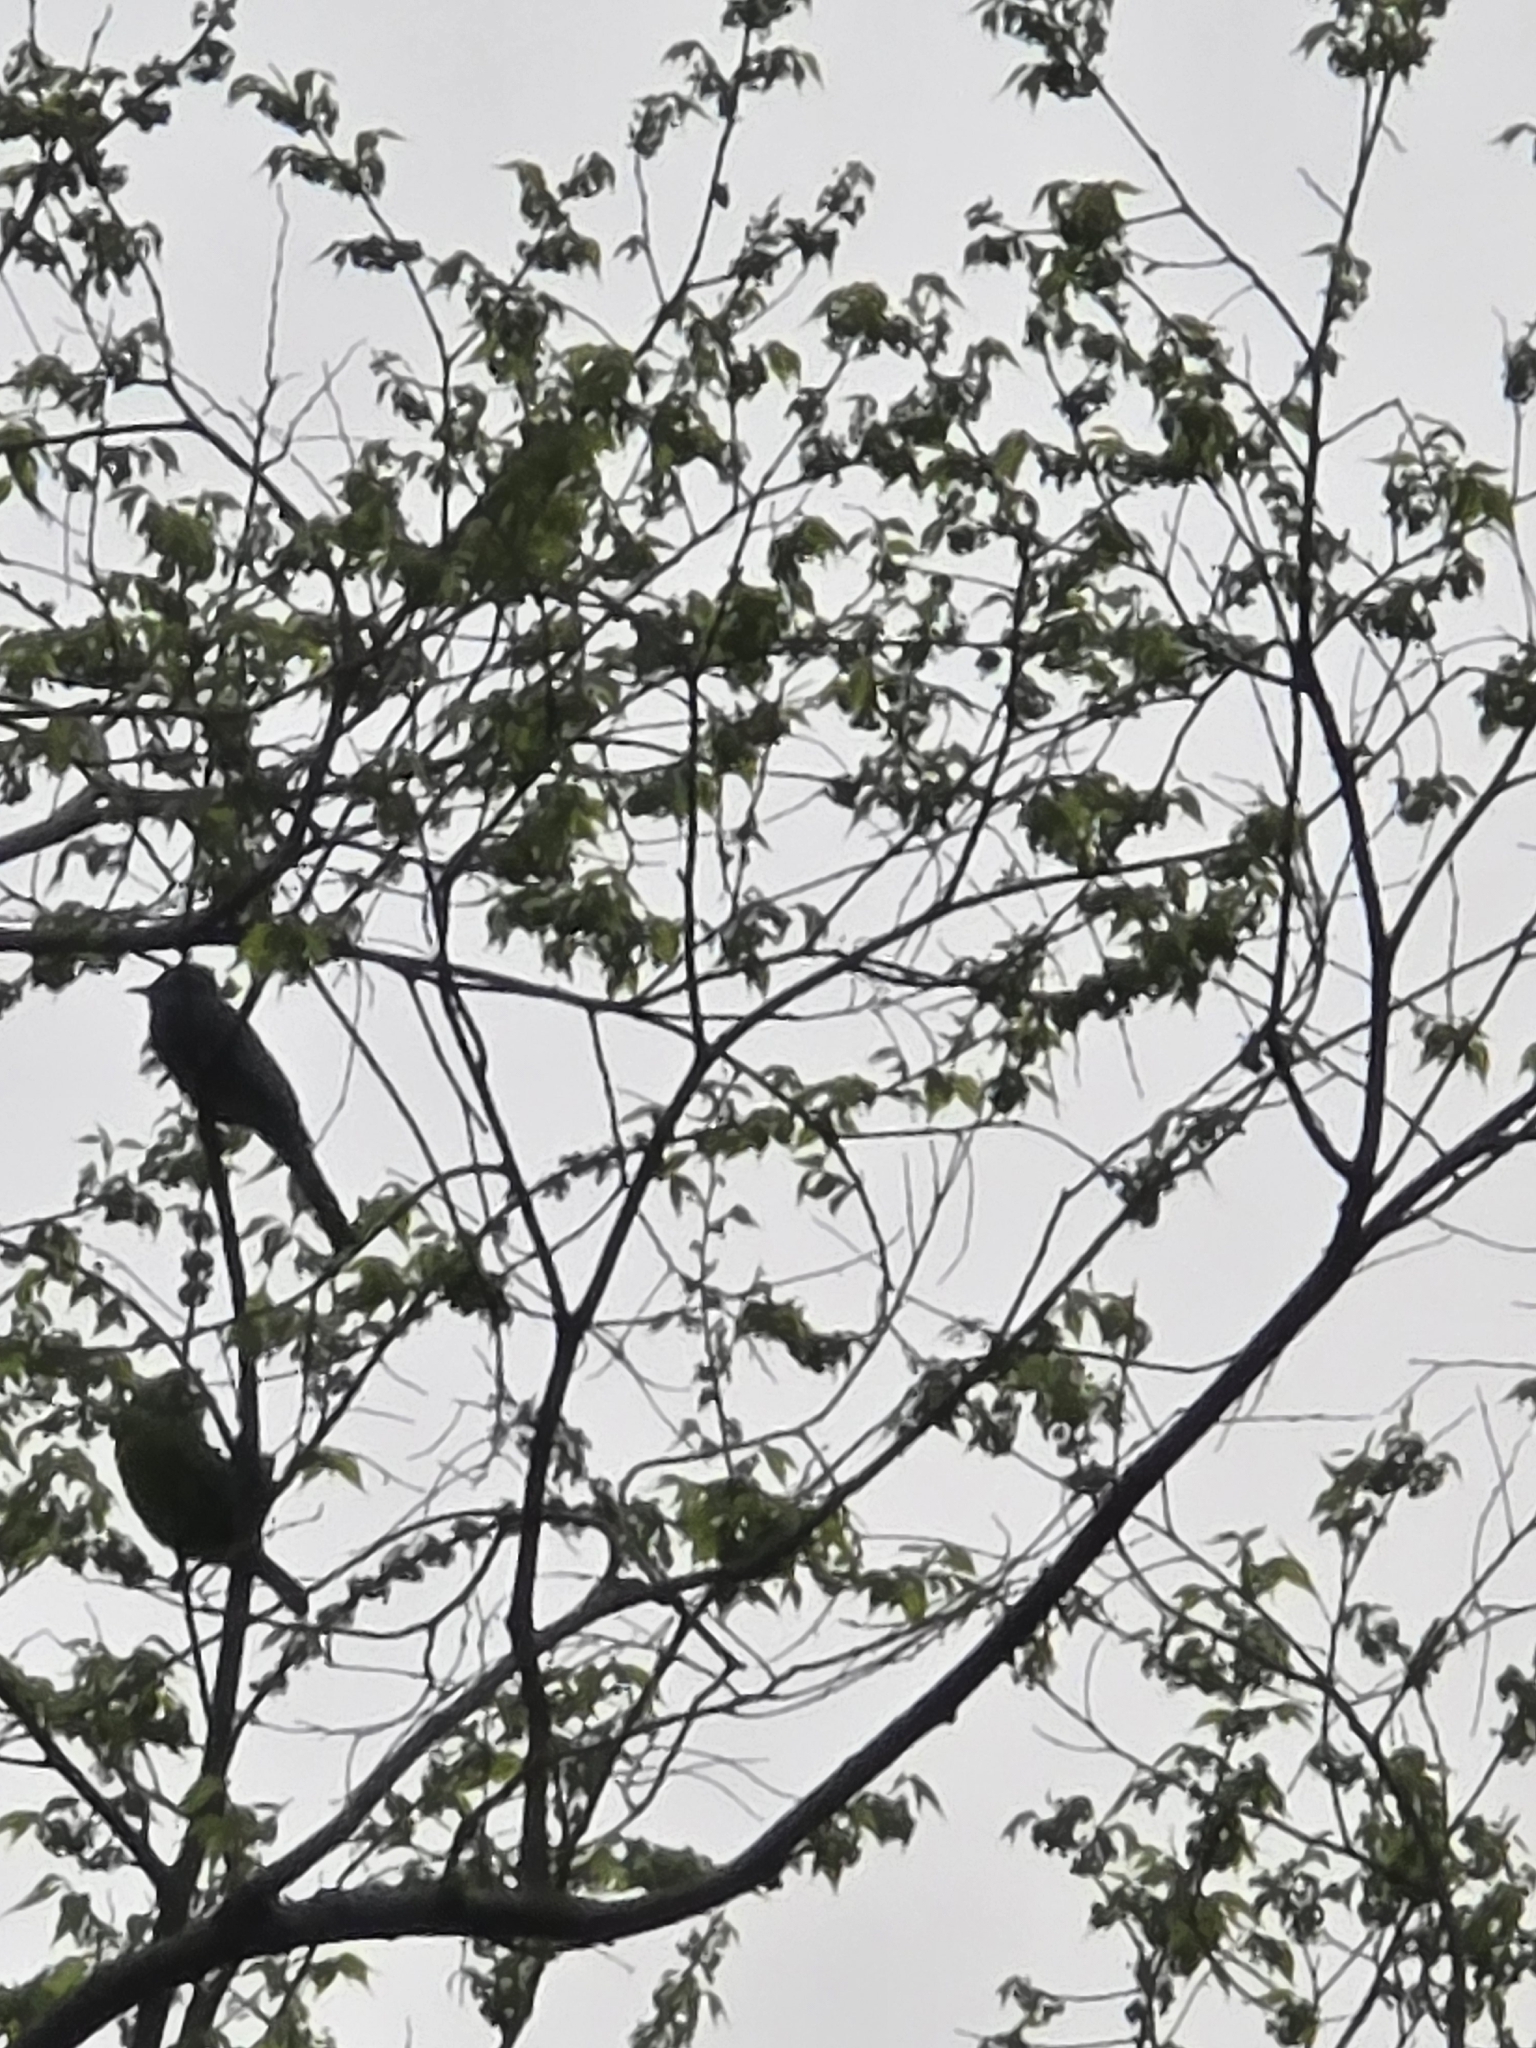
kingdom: Animalia
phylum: Chordata
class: Aves
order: Piciformes
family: Megalaimidae
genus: Psilopogon
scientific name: Psilopogon asiaticus
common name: Blue-throated barbet
